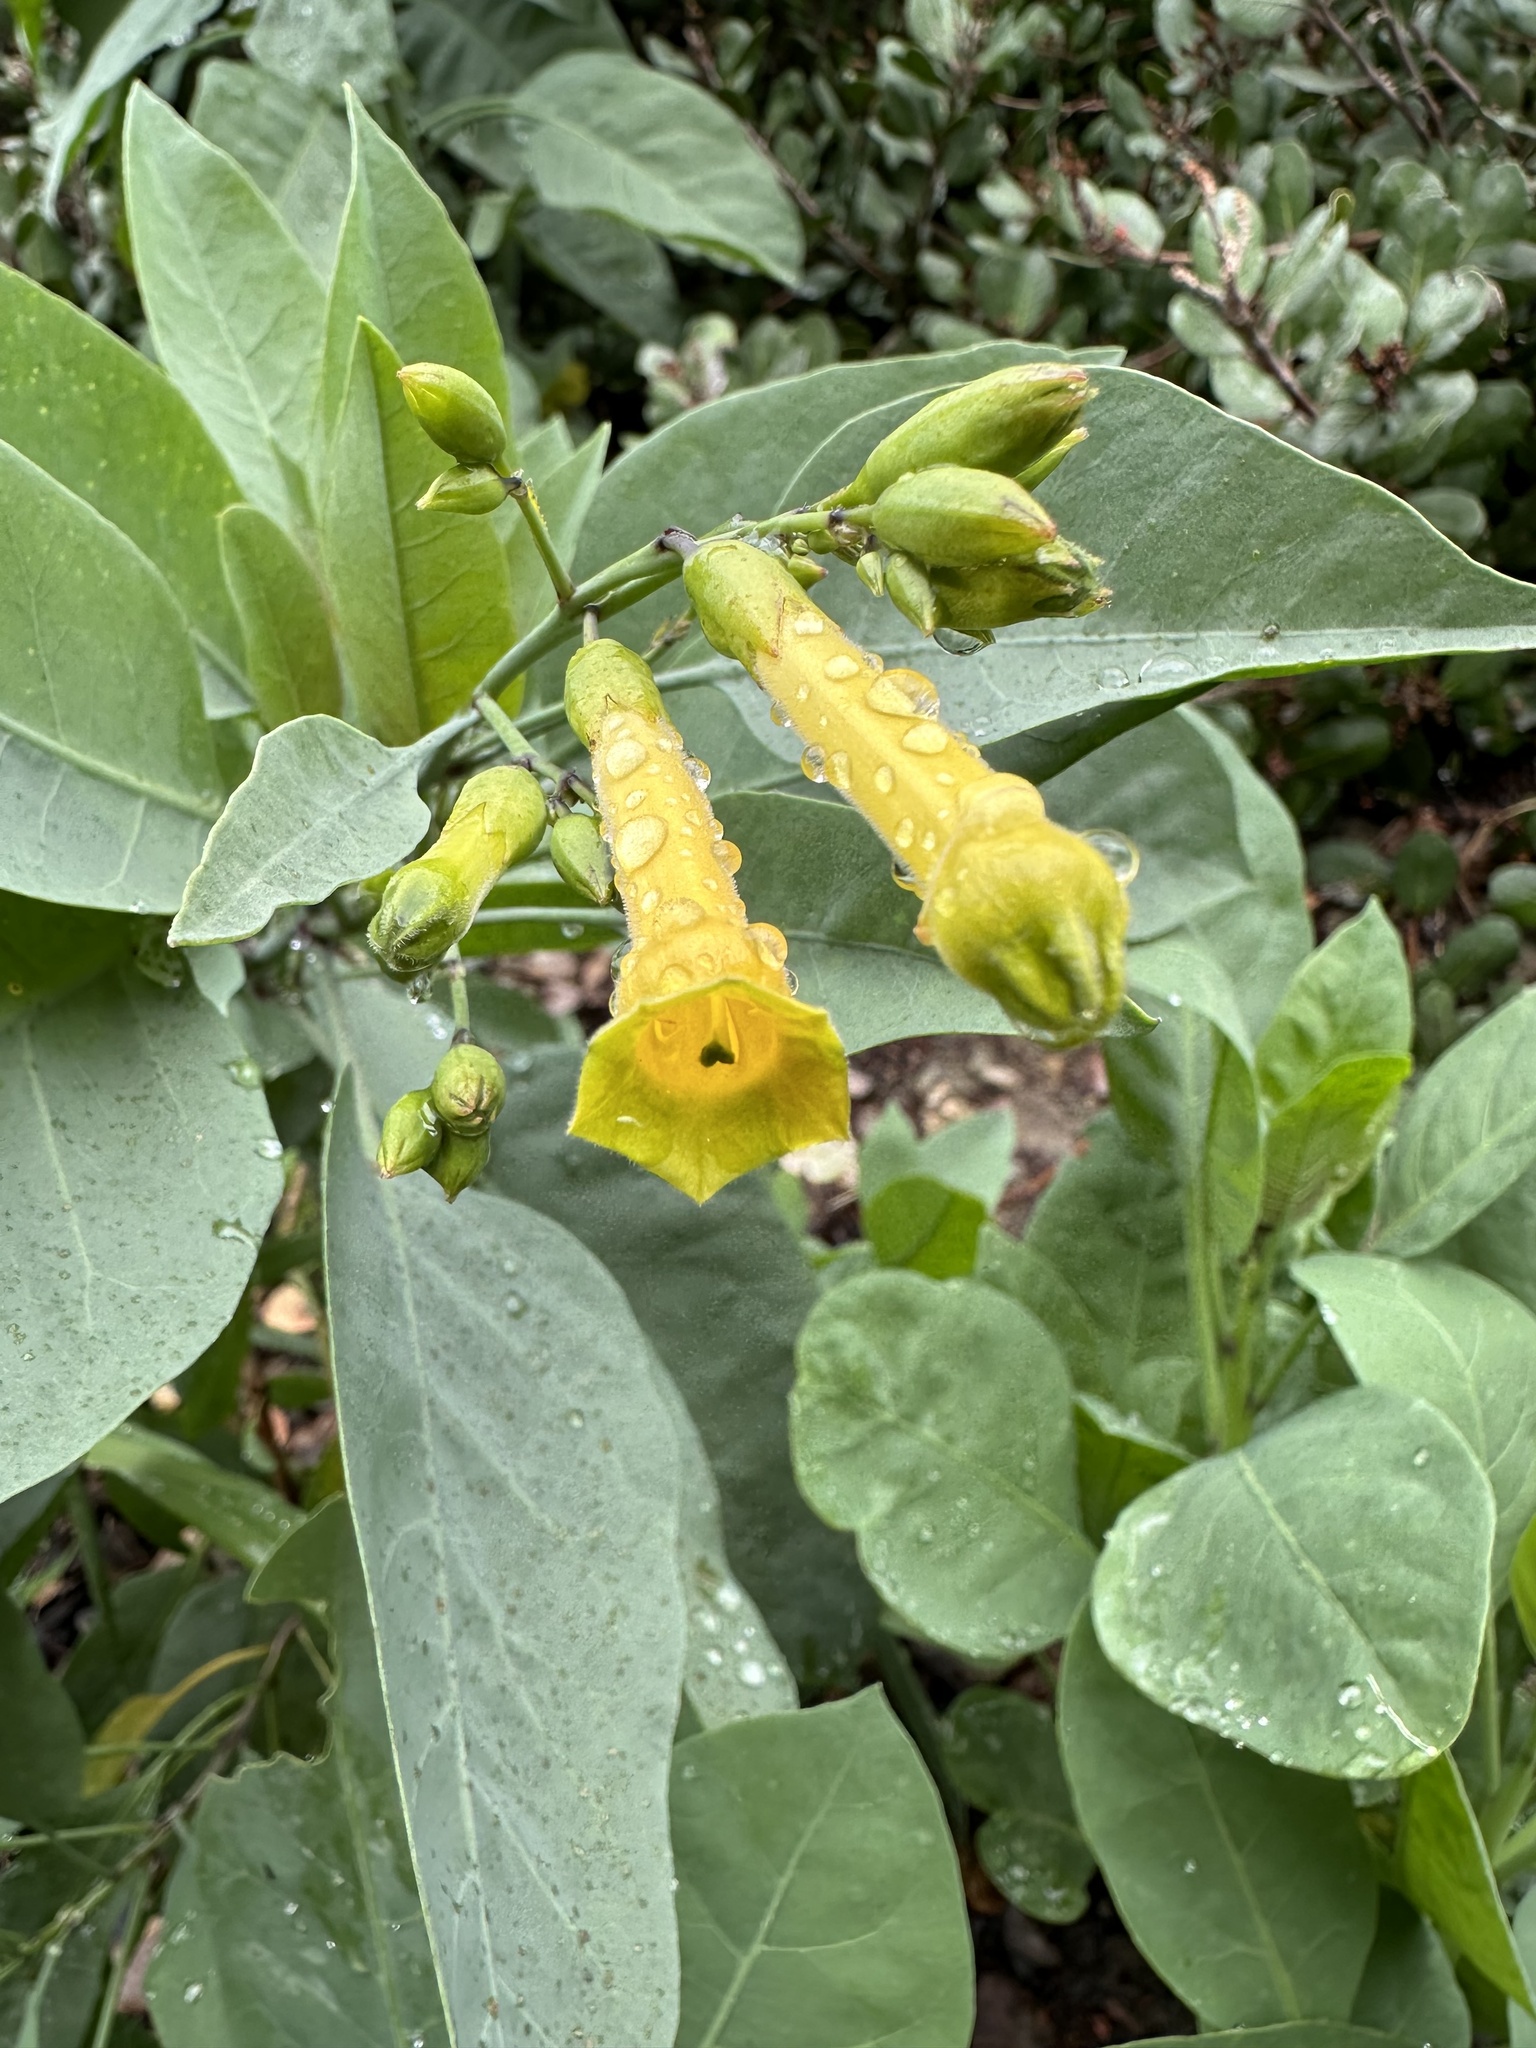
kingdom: Plantae
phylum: Tracheophyta
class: Magnoliopsida
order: Solanales
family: Solanaceae
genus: Nicotiana
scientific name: Nicotiana glauca
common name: Tree tobacco
